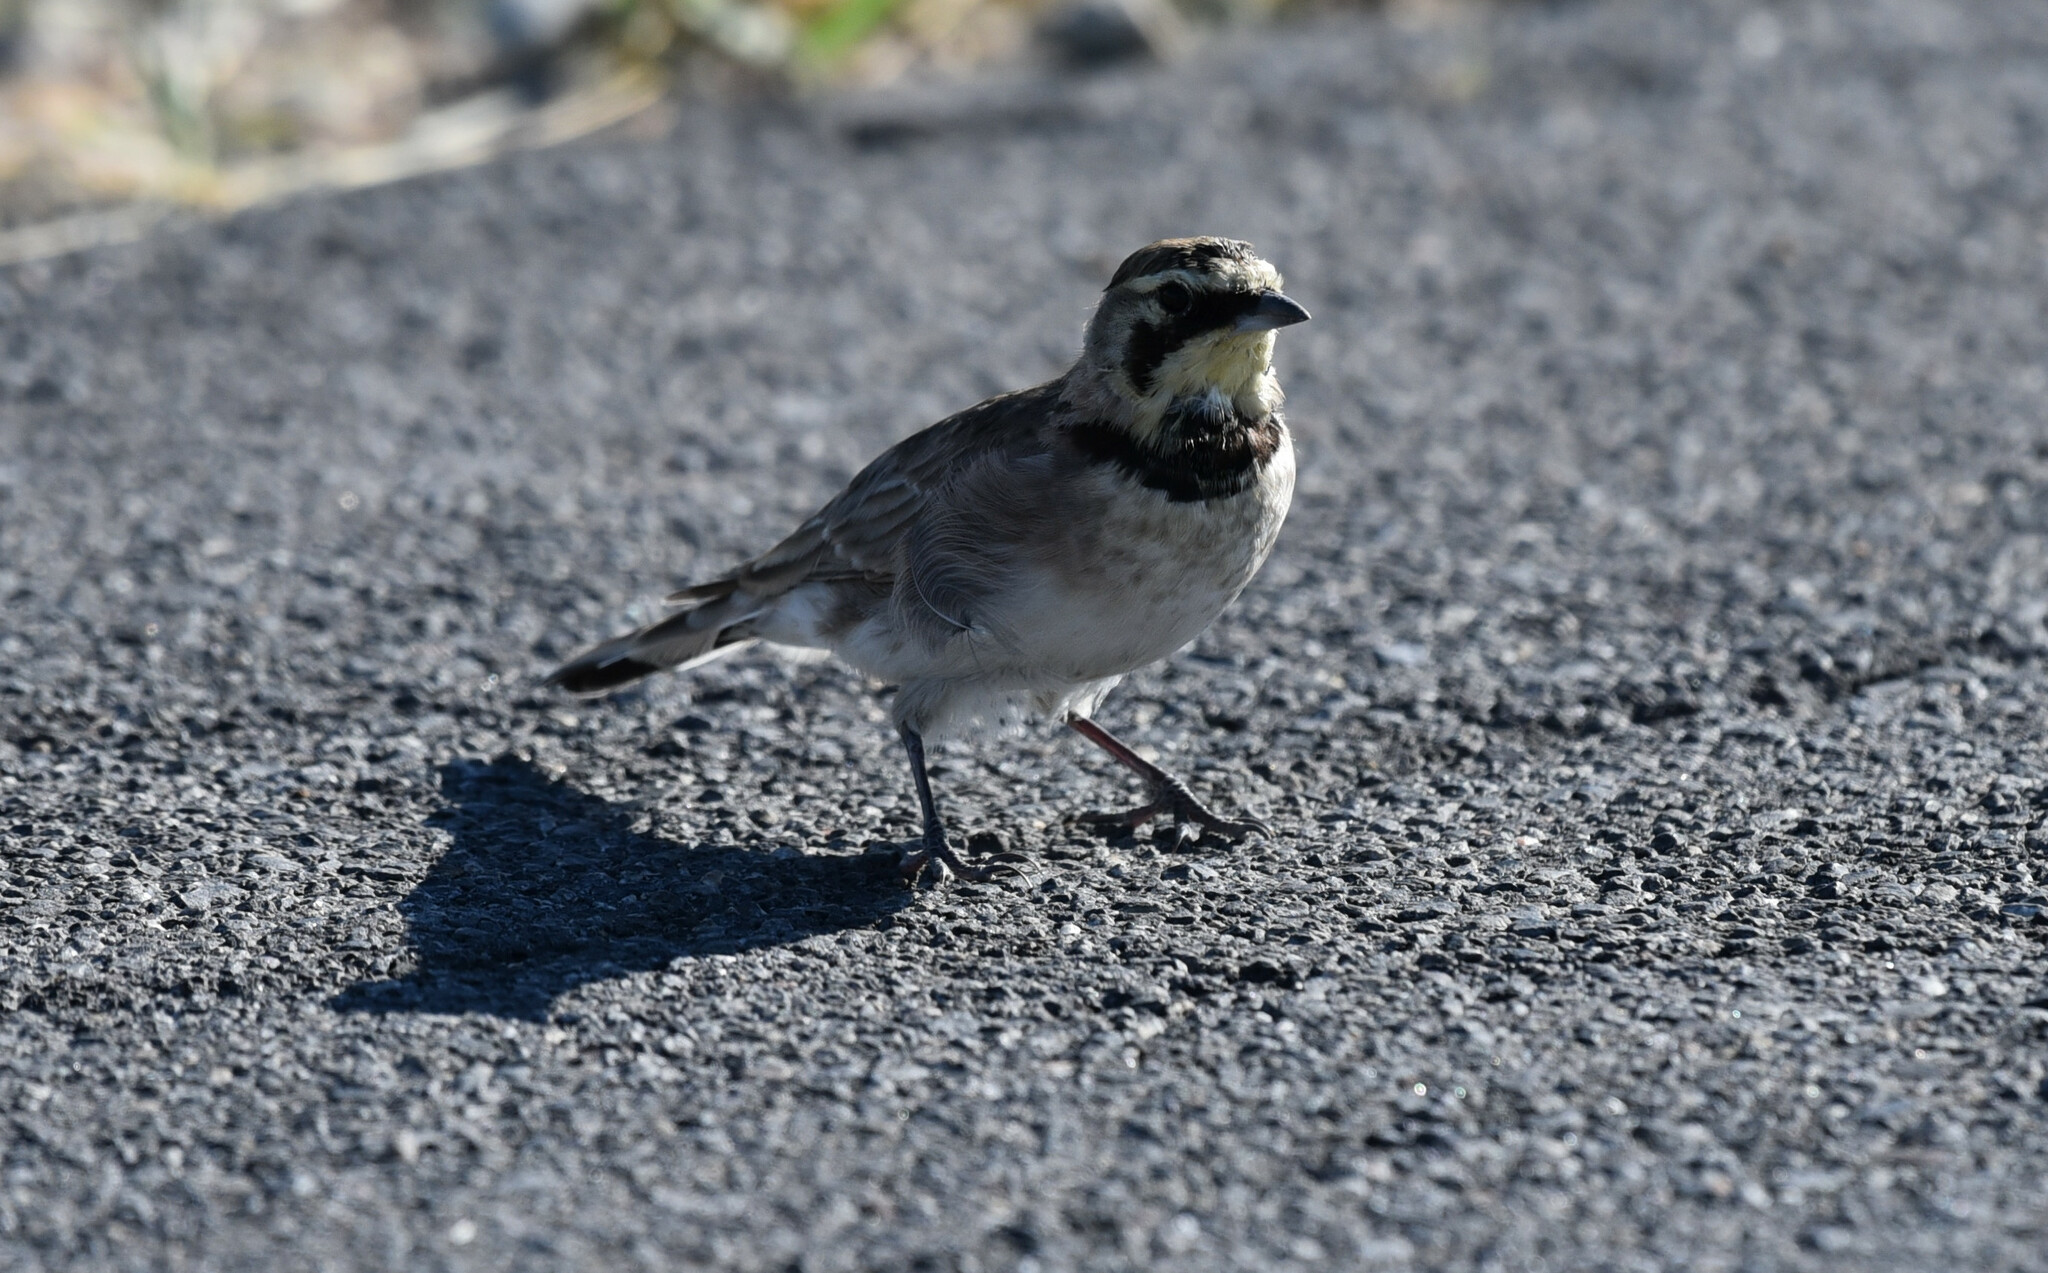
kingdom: Animalia
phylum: Chordata
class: Aves
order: Passeriformes
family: Alaudidae
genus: Eremophila
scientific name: Eremophila alpestris
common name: Horned lark
